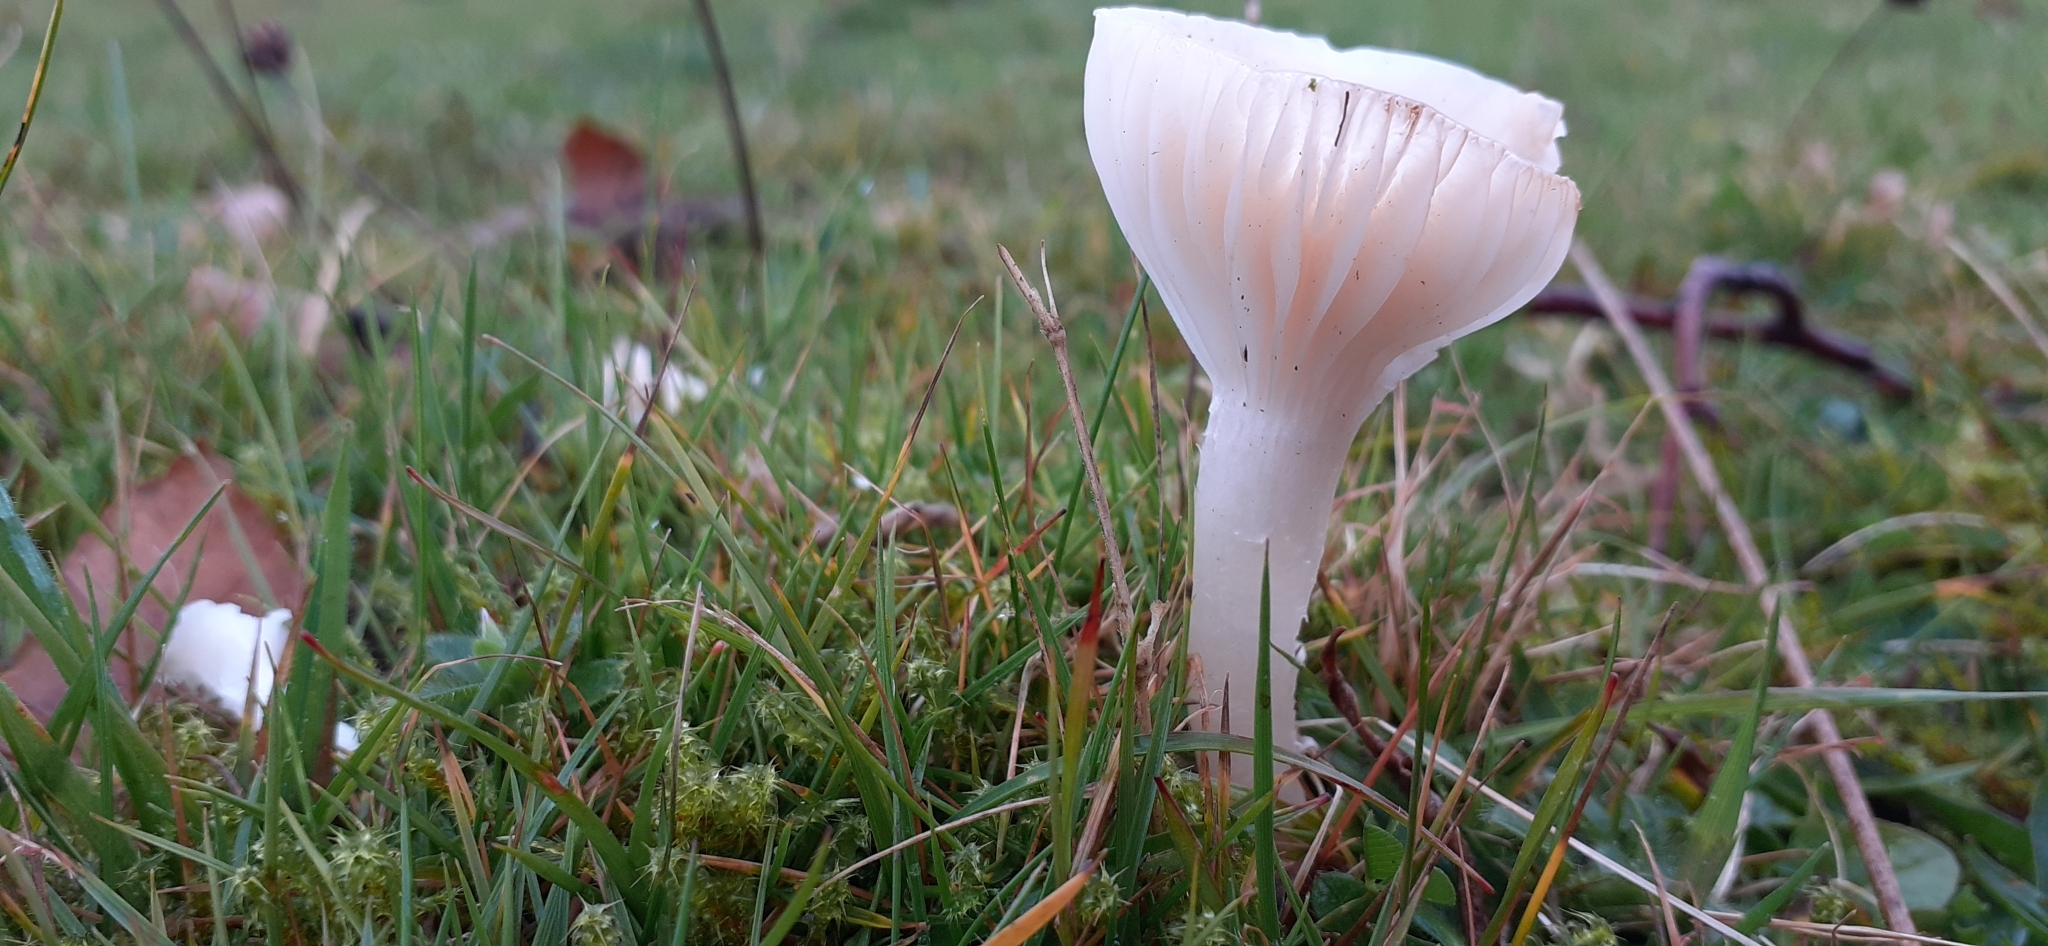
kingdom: Fungi
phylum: Basidiomycota
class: Agaricomycetes
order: Agaricales
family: Hygrophoraceae
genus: Cuphophyllus
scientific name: Cuphophyllus virgineus
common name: Snowy waxcap
